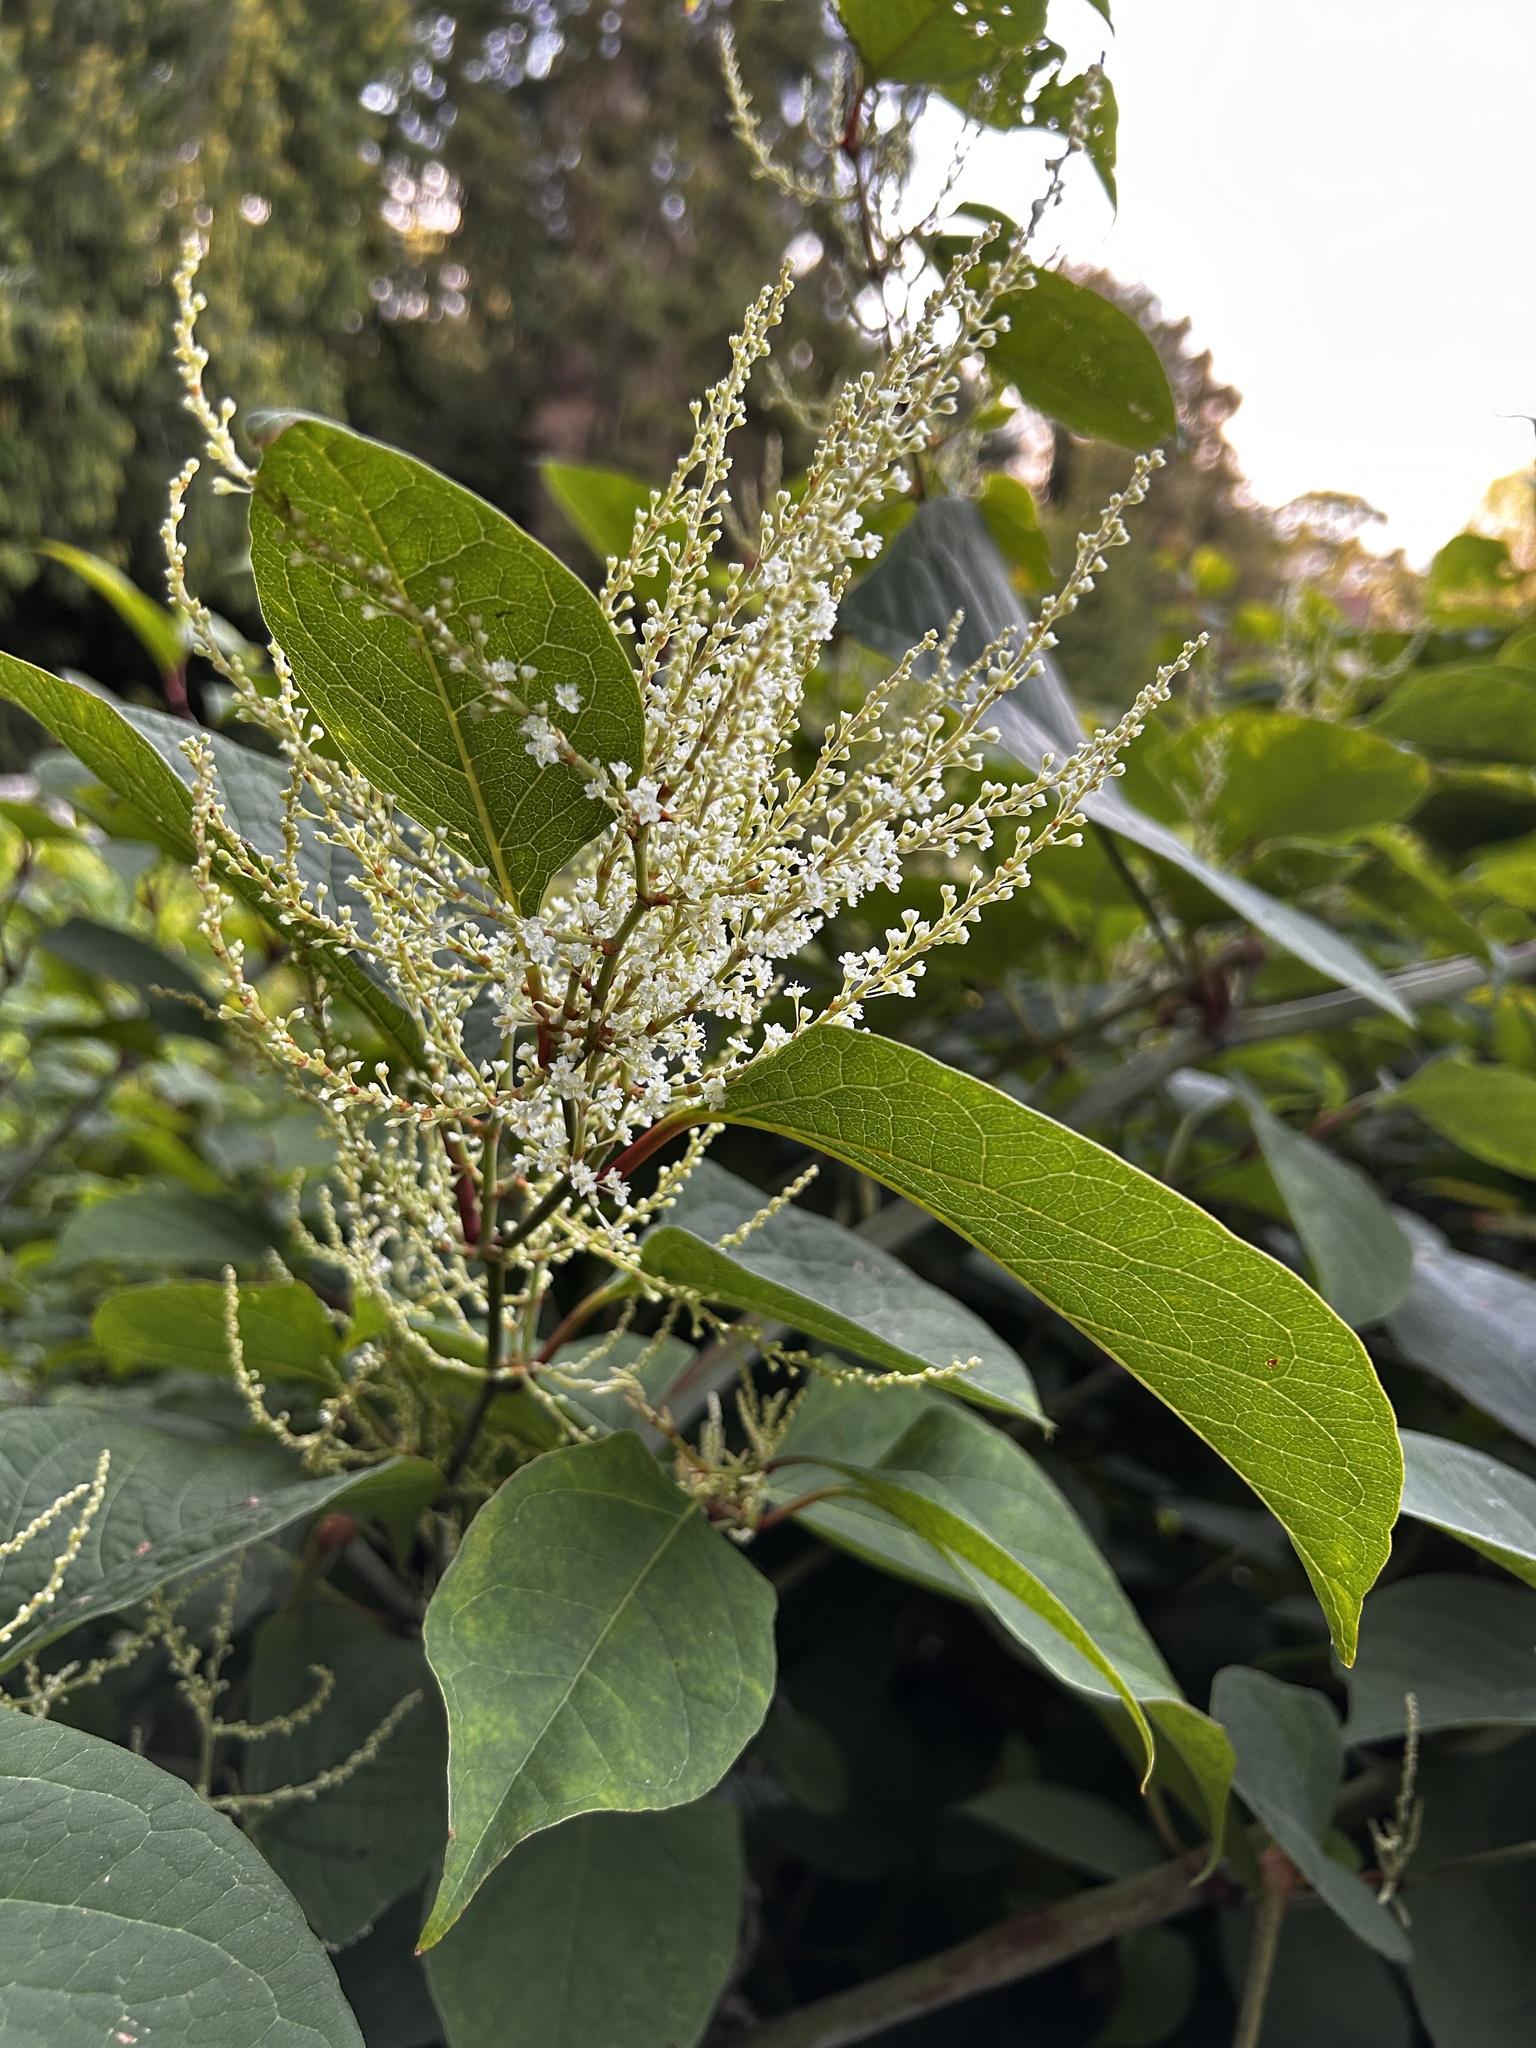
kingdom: Plantae
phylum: Tracheophyta
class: Magnoliopsida
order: Caryophyllales
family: Polygonaceae
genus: Reynoutria
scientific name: Reynoutria japonica
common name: Japanese knotweed
